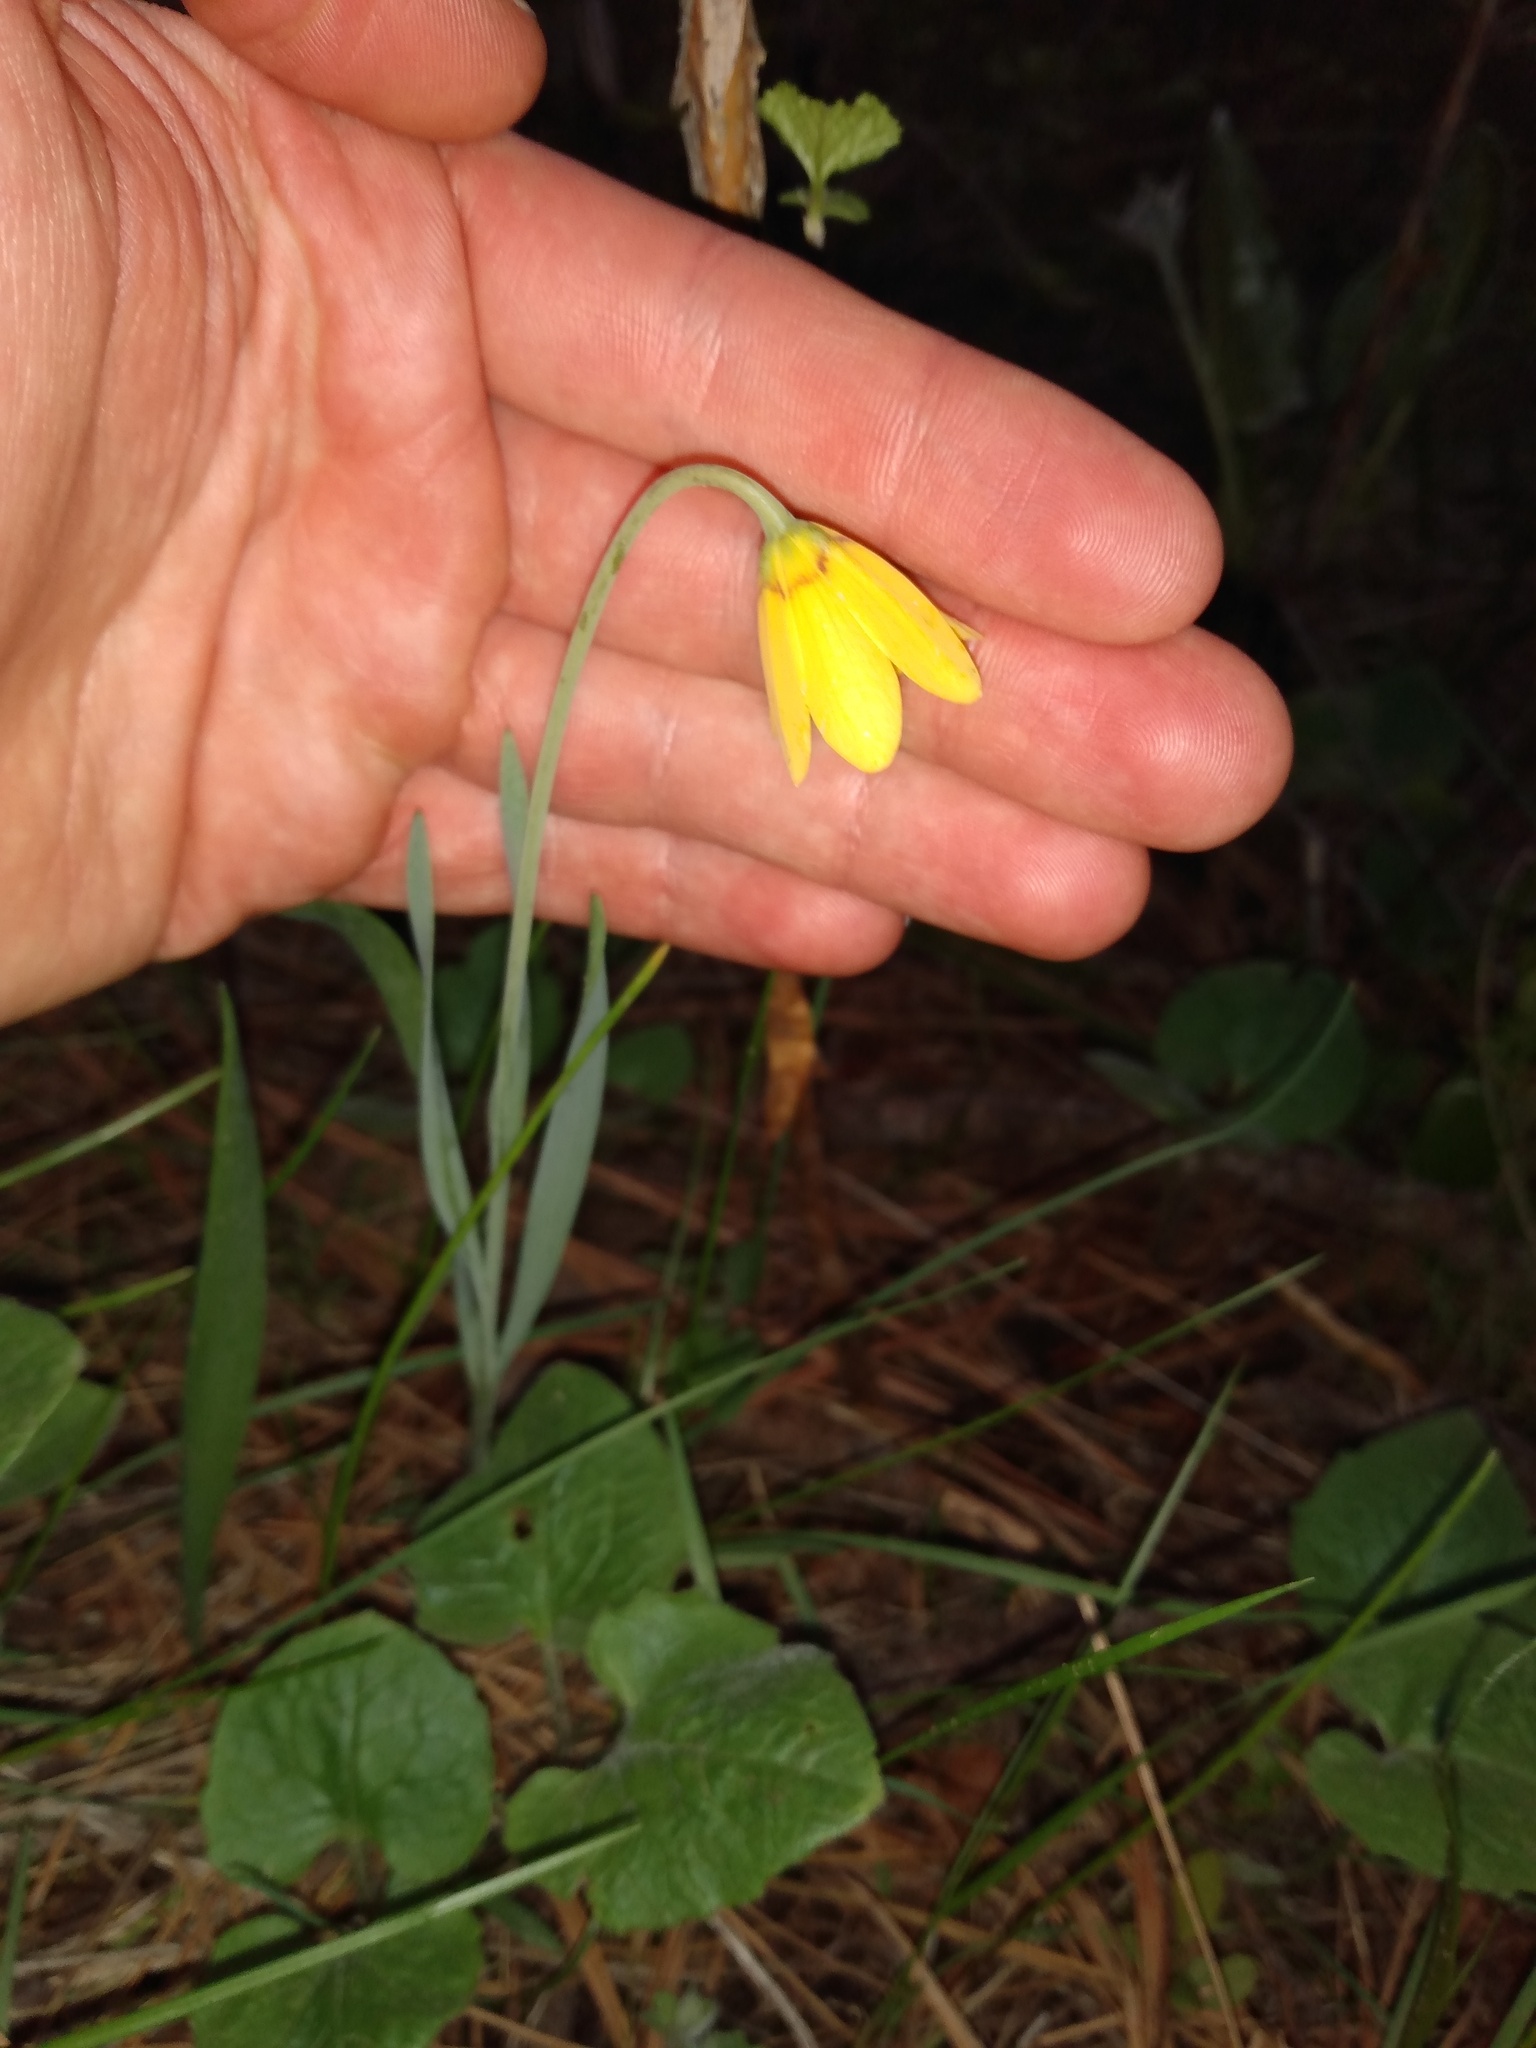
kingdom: Plantae
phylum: Tracheophyta
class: Liliopsida
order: Liliales
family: Liliaceae
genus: Fritillaria
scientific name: Fritillaria pudica
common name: Yellow fritillary
